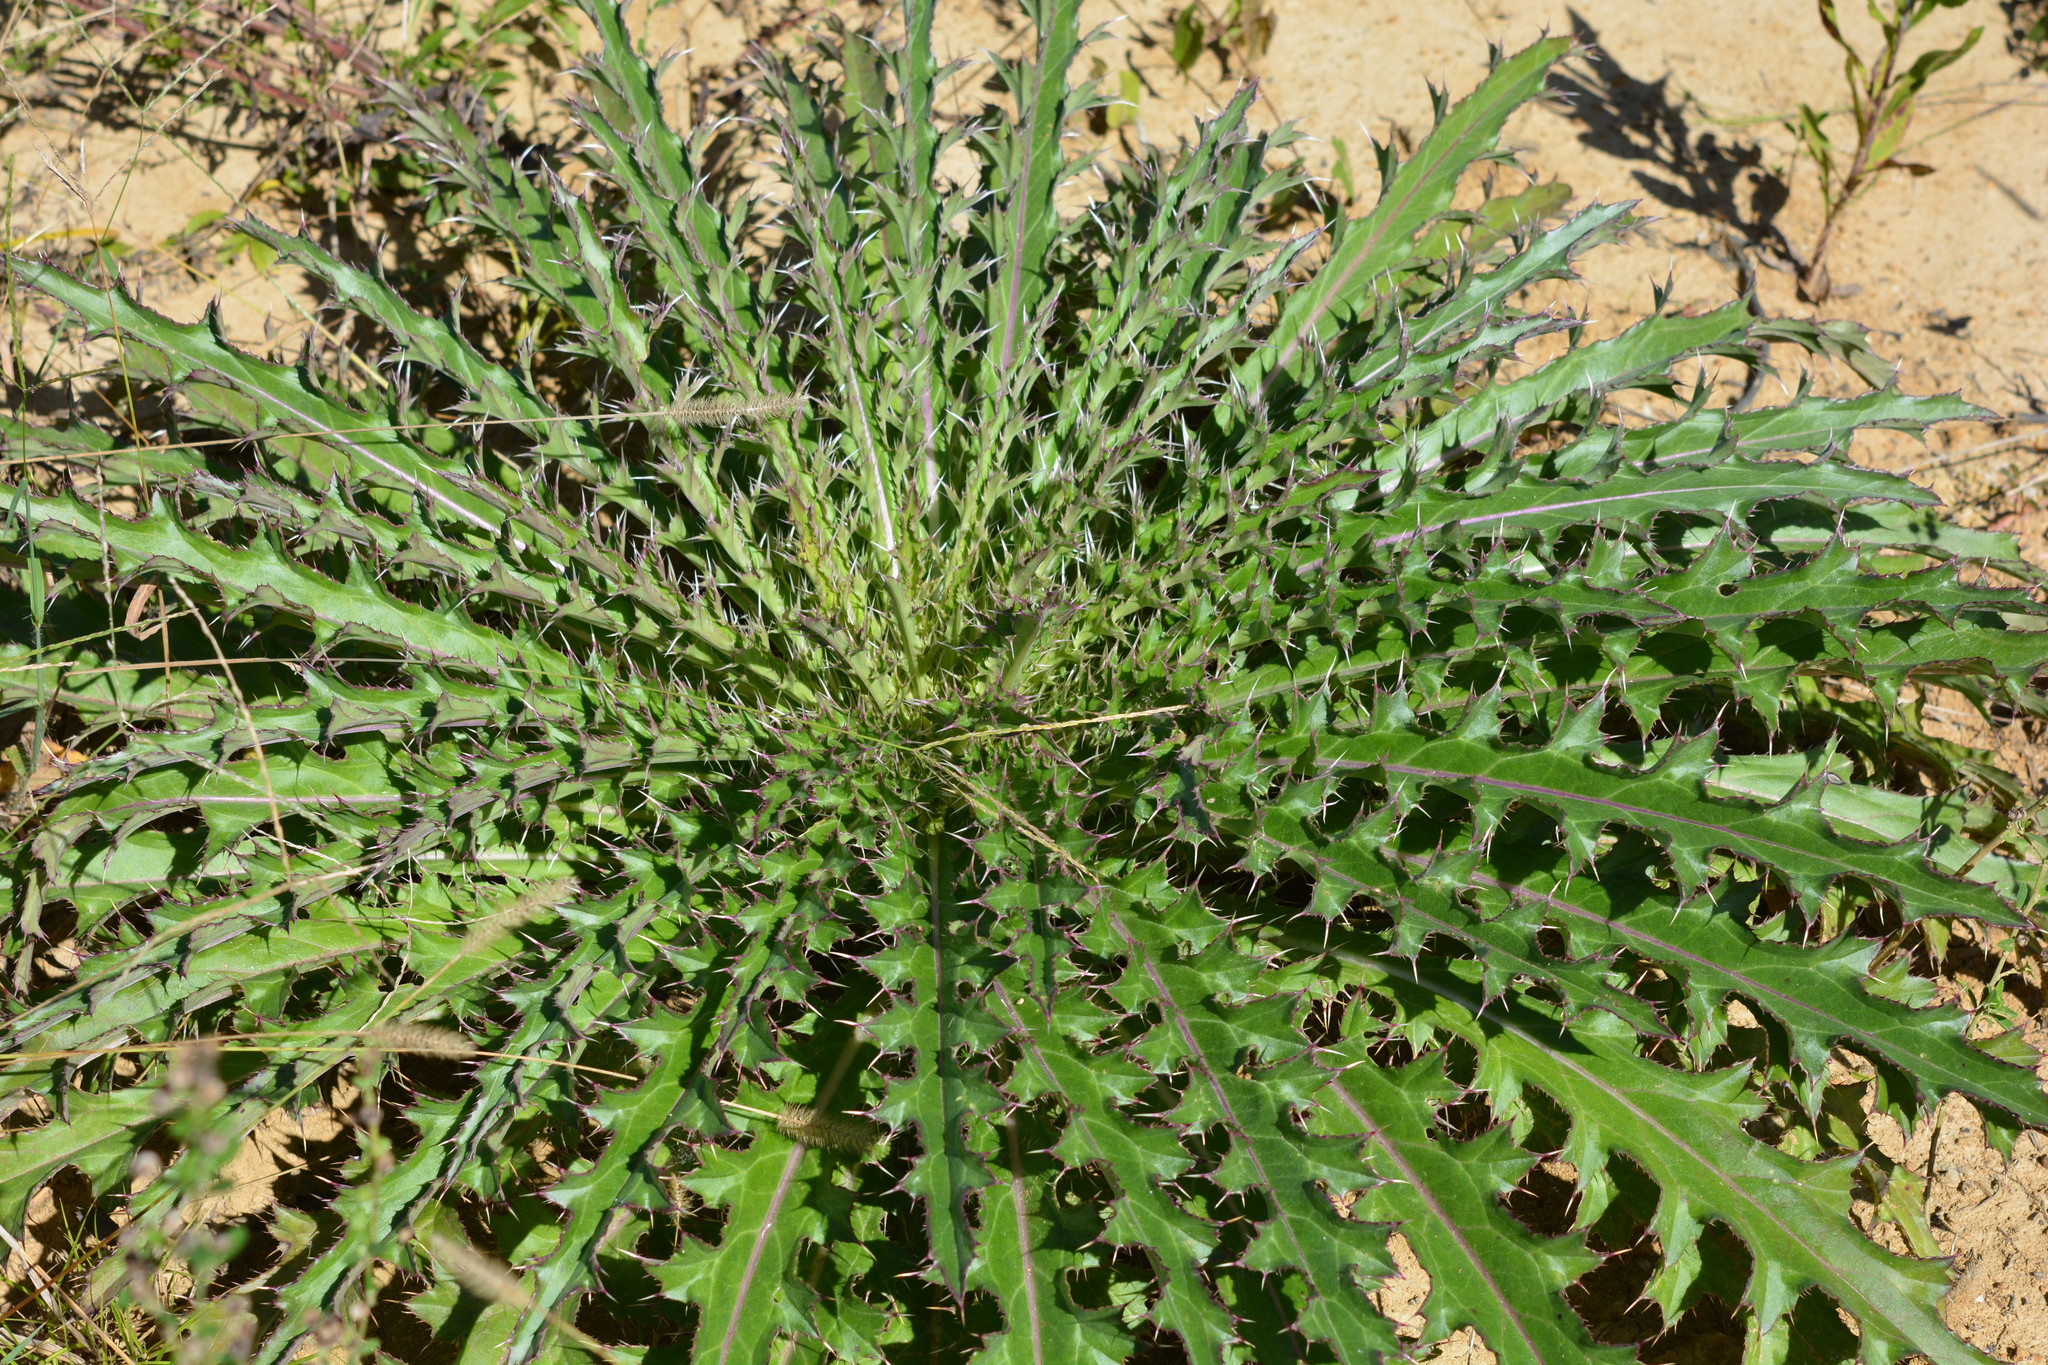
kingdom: Plantae
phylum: Tracheophyta
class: Magnoliopsida
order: Asterales
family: Asteraceae
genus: Cirsium
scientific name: Cirsium horridulum
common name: Bristly thistle
